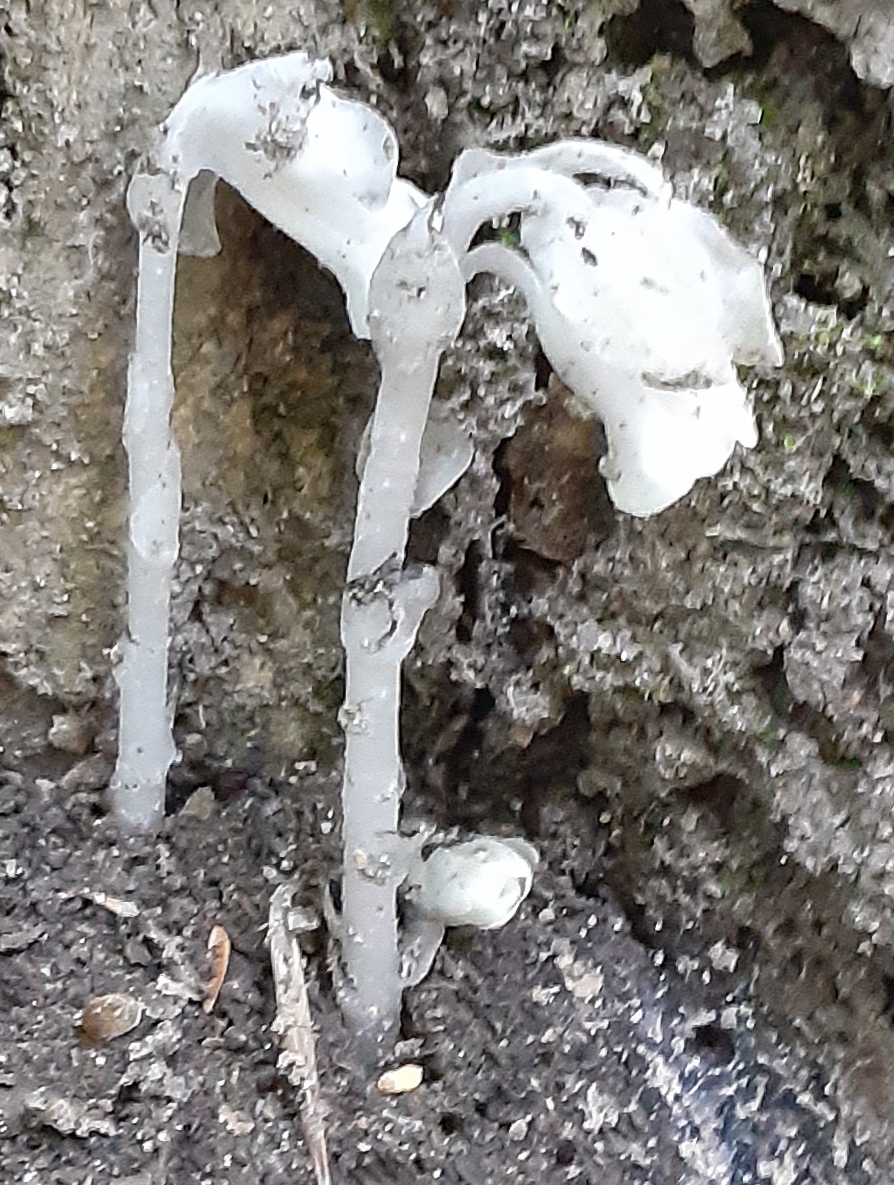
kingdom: Plantae
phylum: Tracheophyta
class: Magnoliopsida
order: Ericales
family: Ericaceae
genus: Monotropa
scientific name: Monotropa uniflora
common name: Convulsion root
